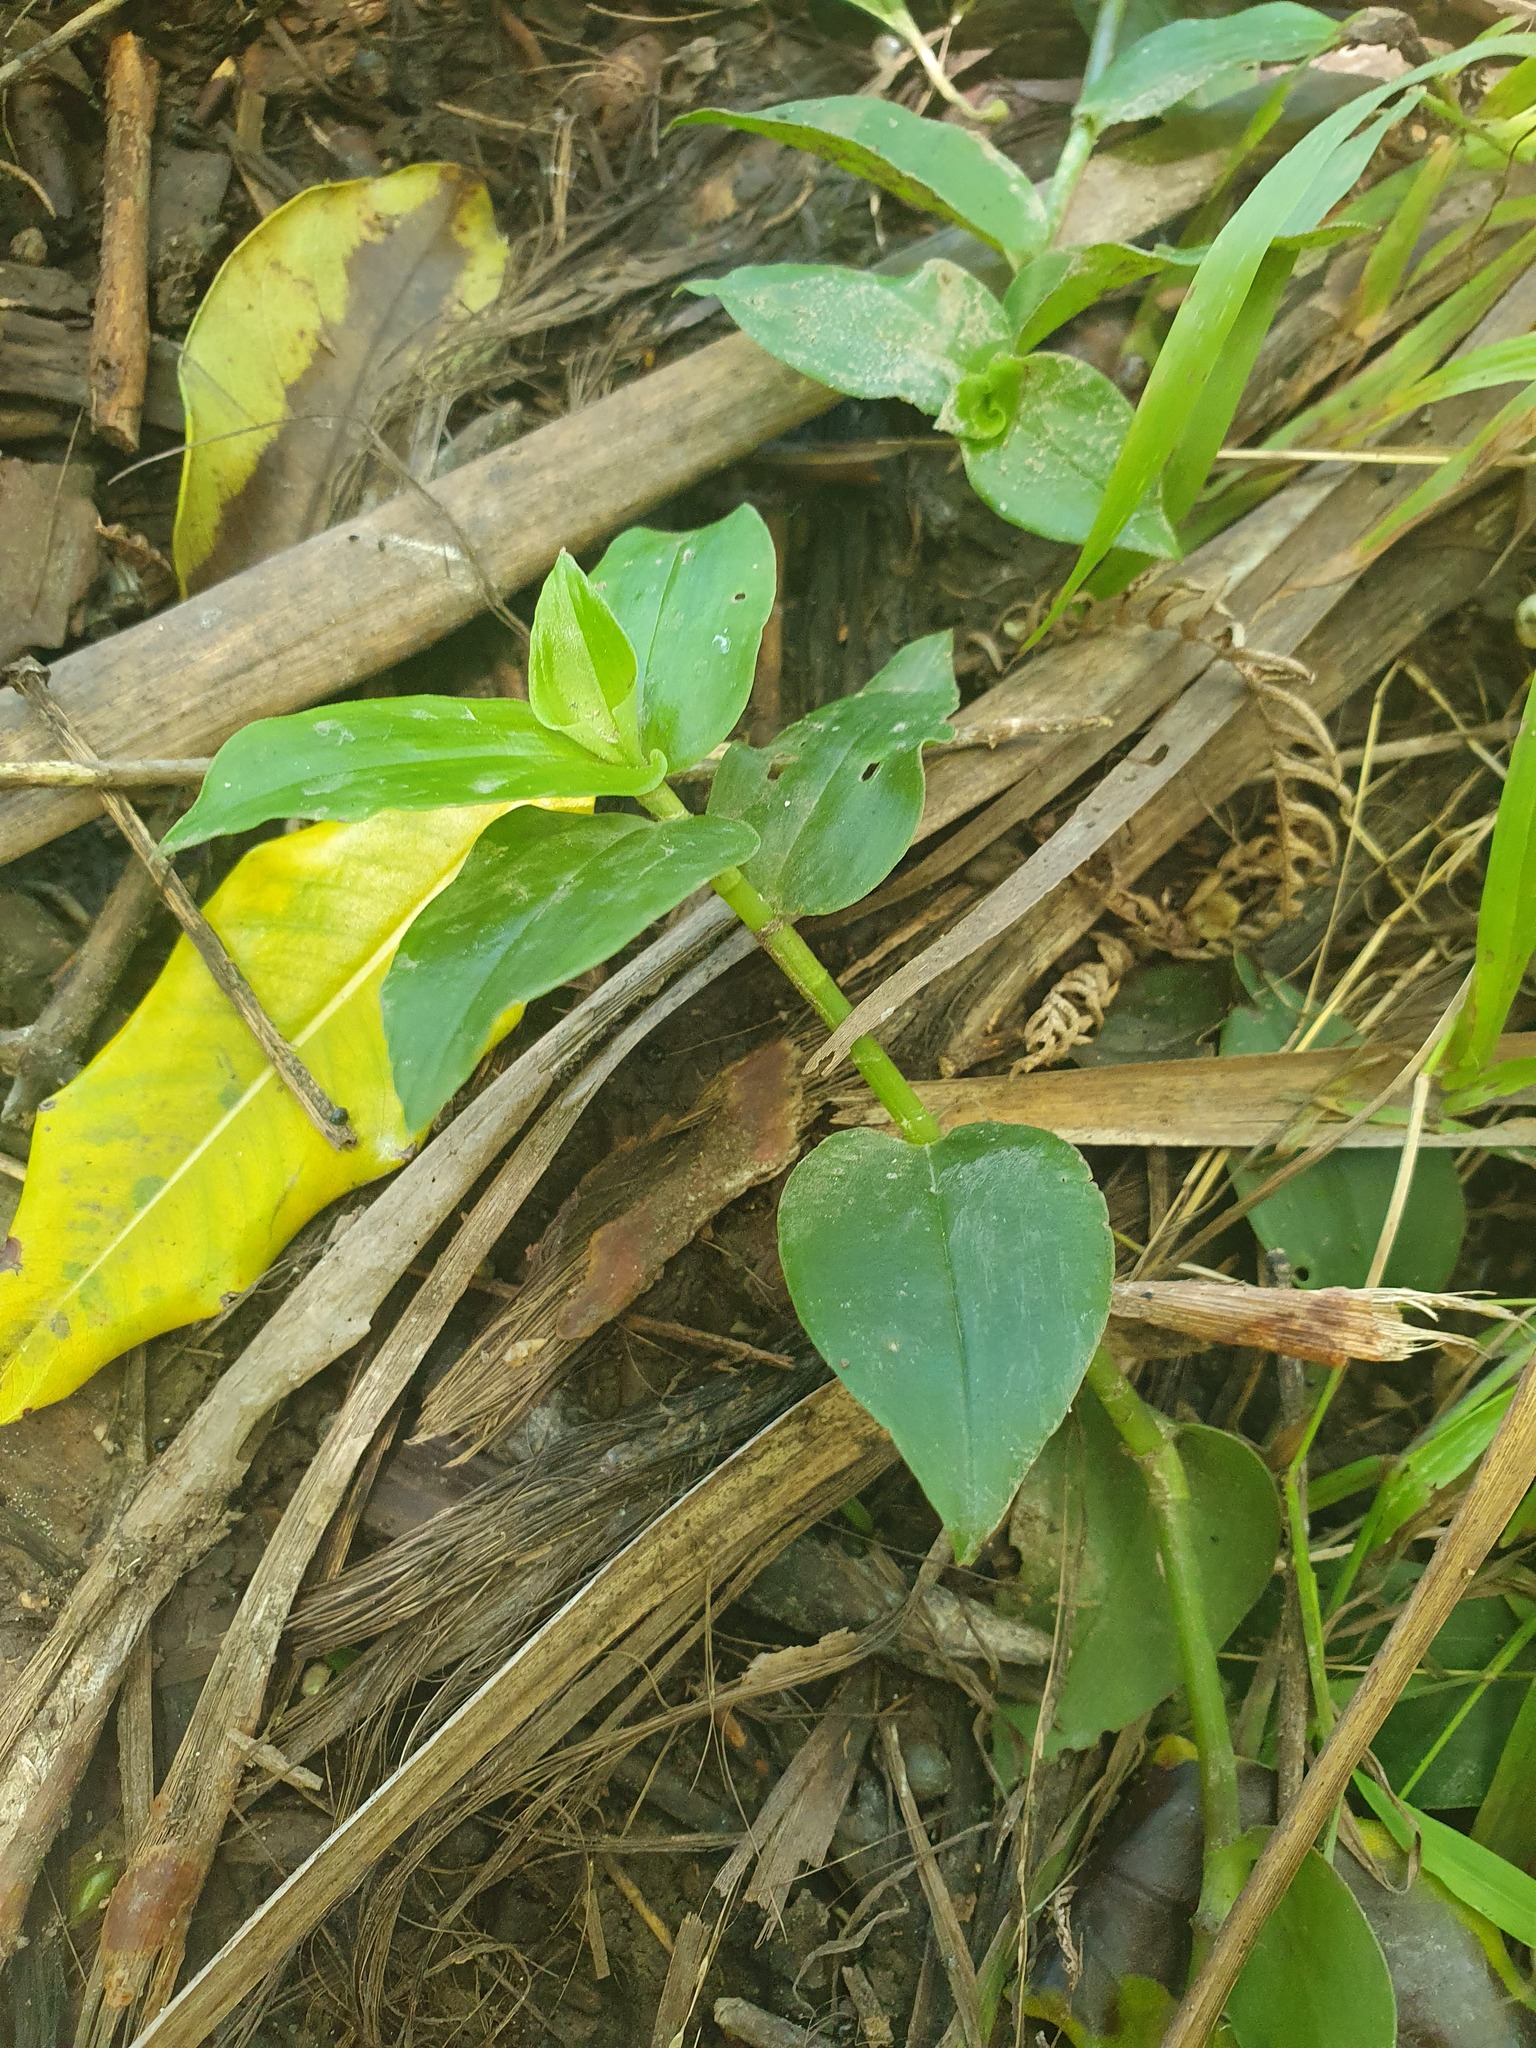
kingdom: Plantae
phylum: Tracheophyta
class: Liliopsida
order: Commelinales
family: Commelinaceae
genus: Tradescantia
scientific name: Tradescantia fluminensis
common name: Wandering-jew
